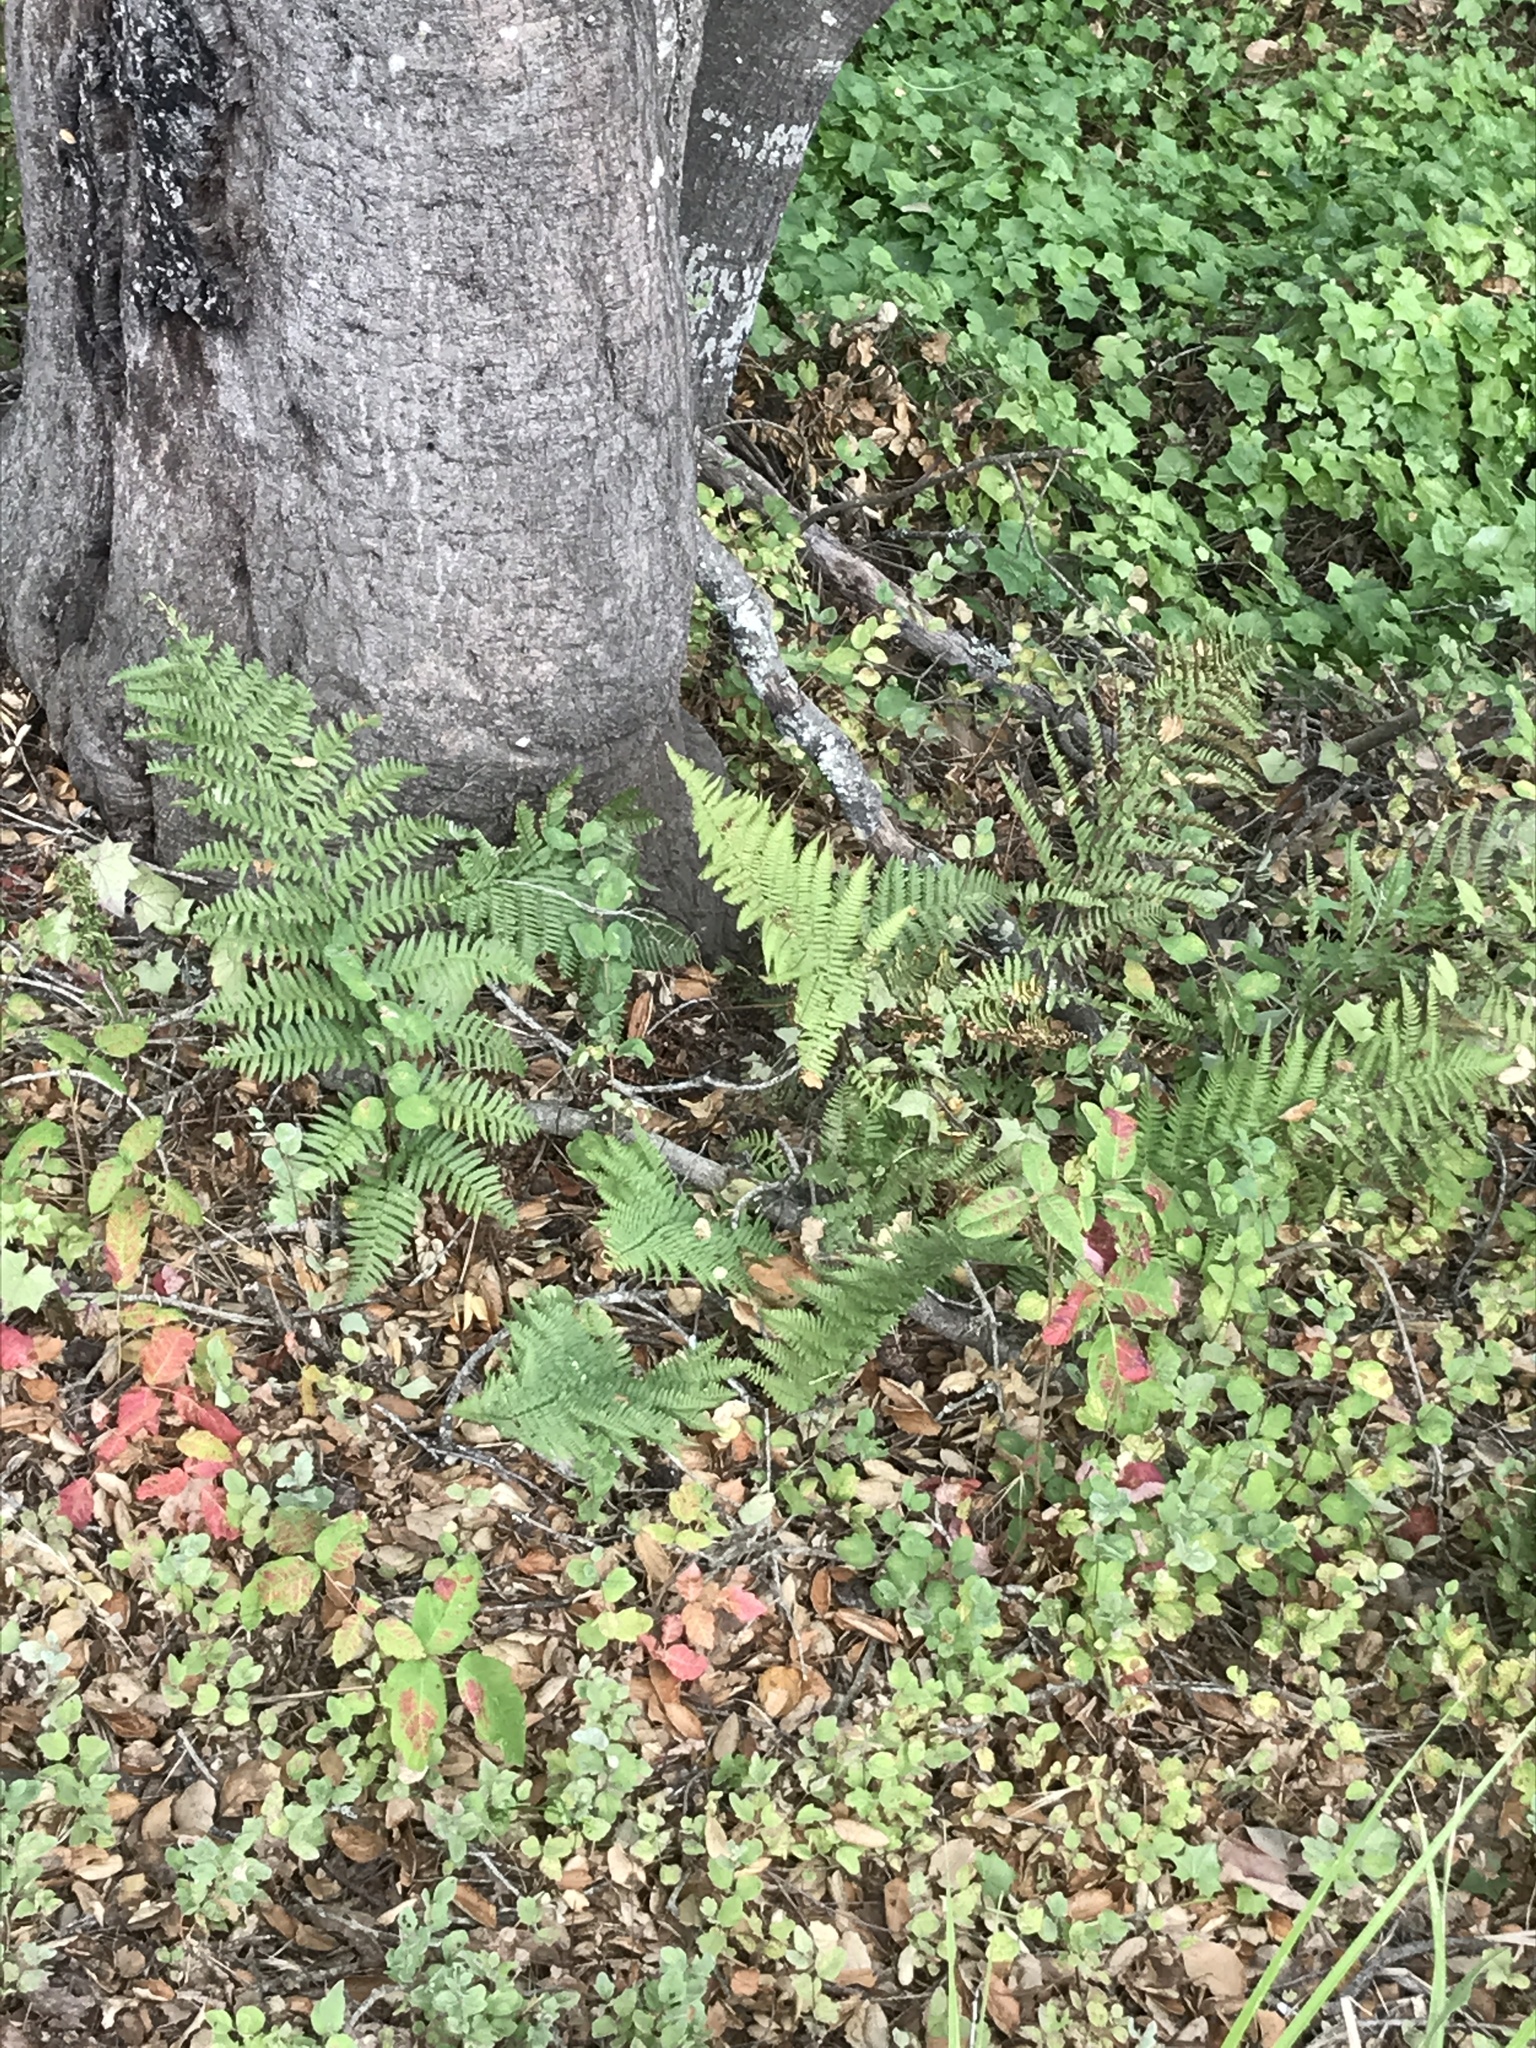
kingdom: Plantae
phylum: Tracheophyta
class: Polypodiopsida
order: Polypodiales
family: Dryopteridaceae
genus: Dryopteris
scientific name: Dryopteris arguta
